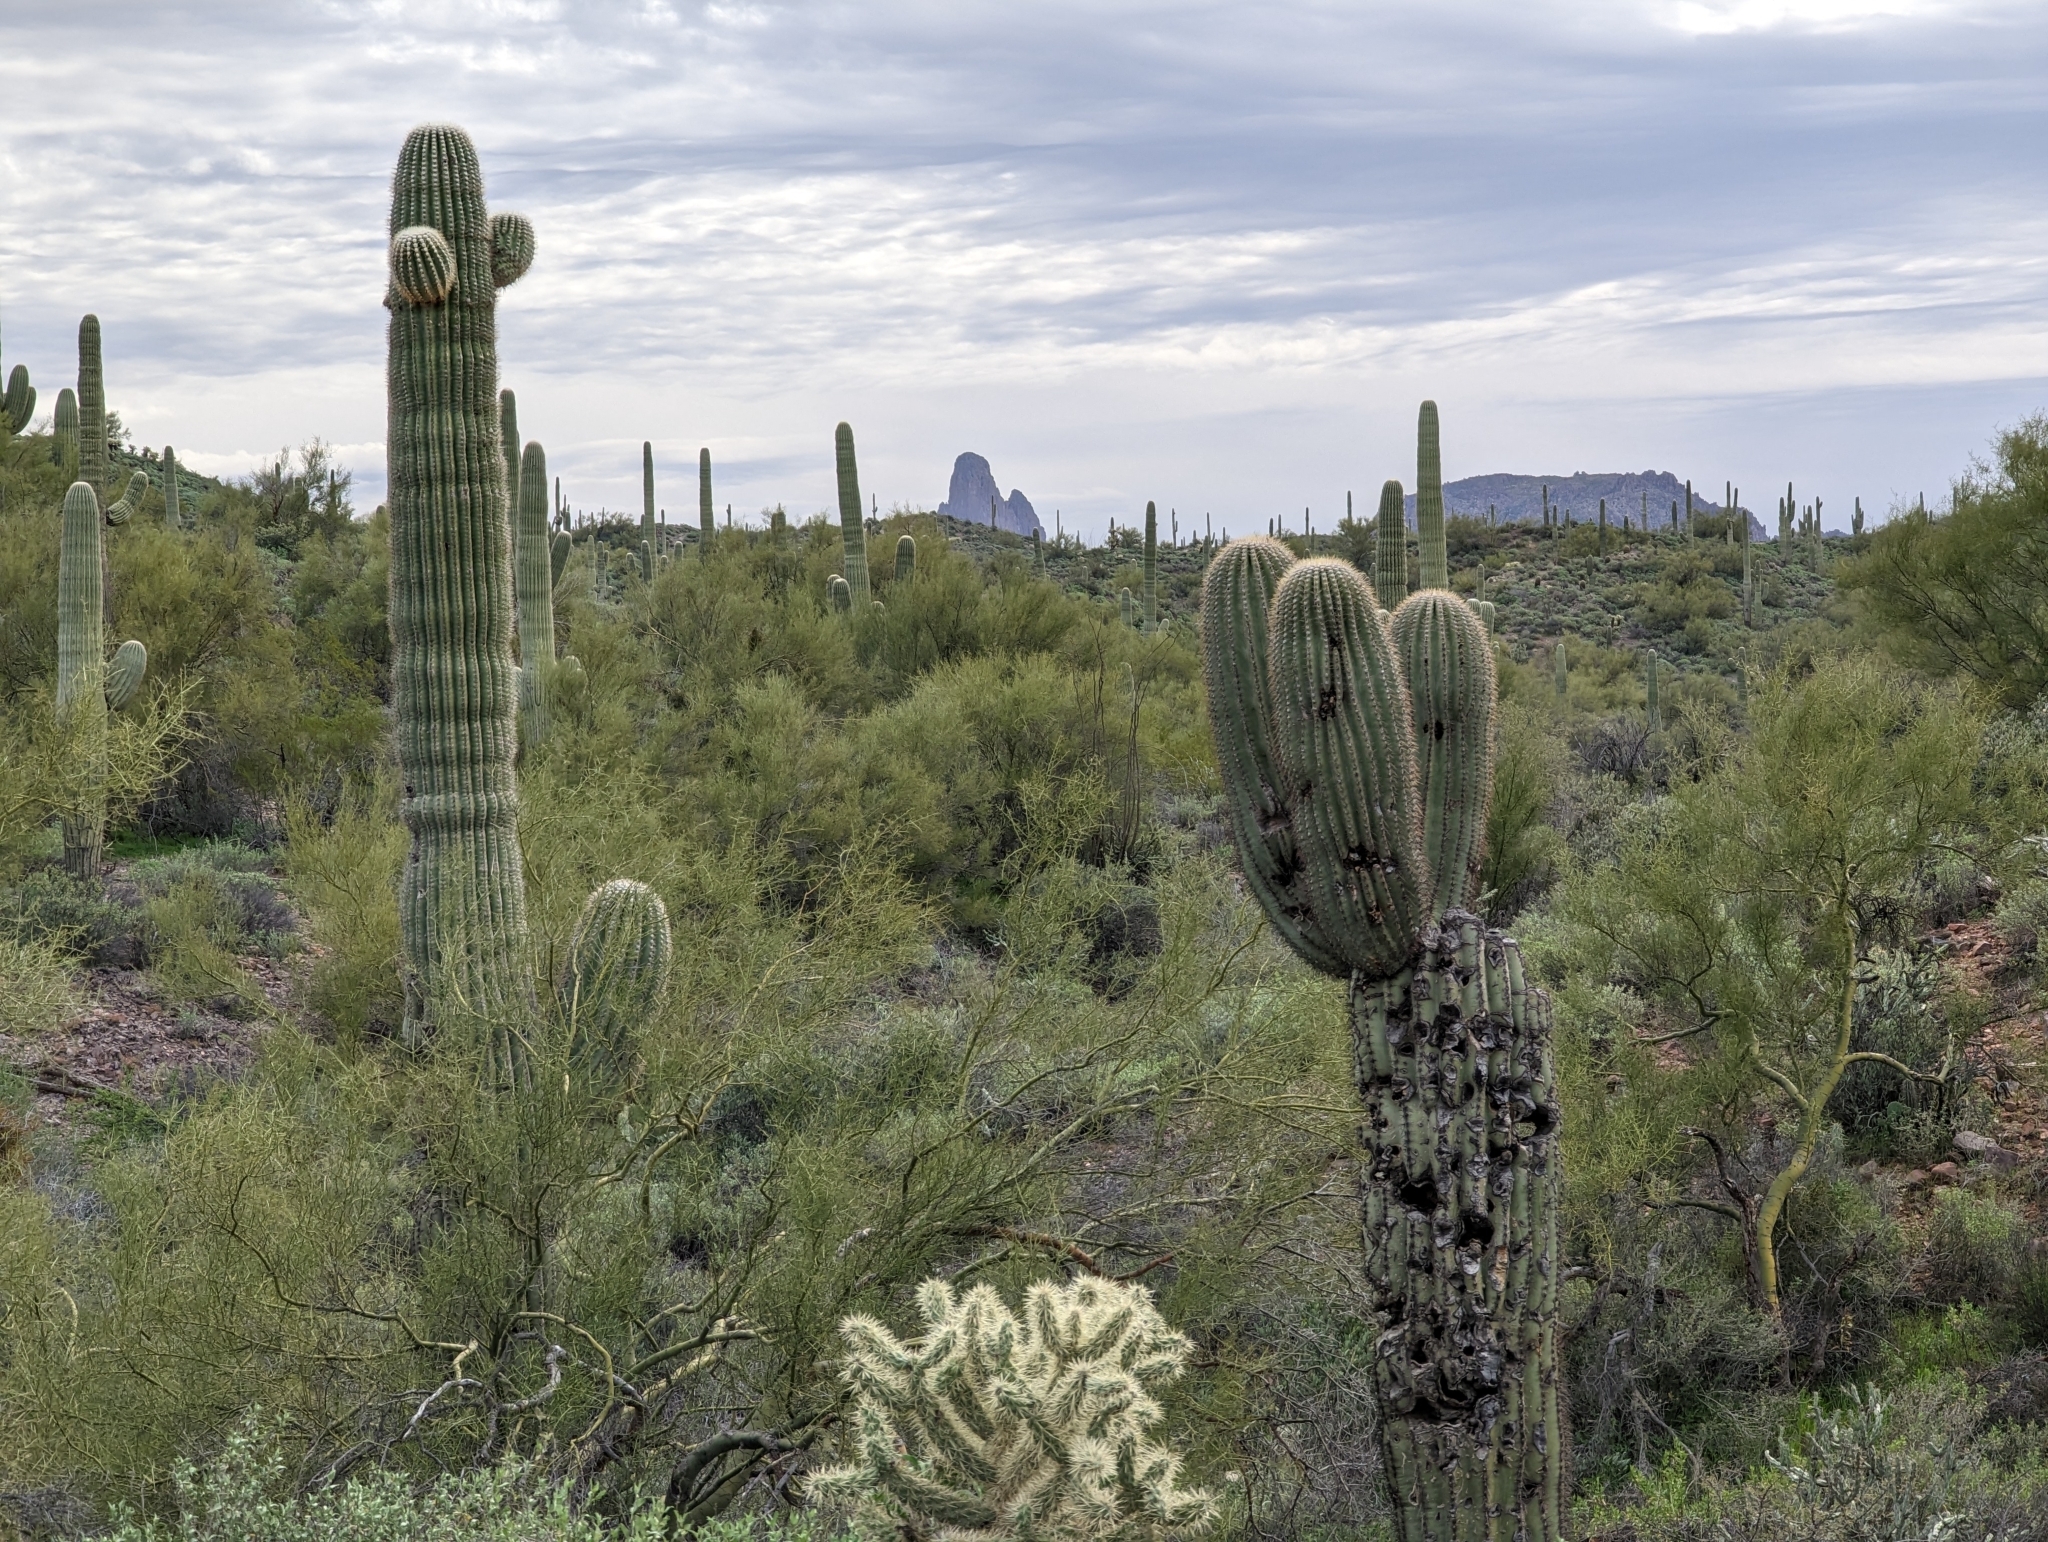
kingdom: Plantae
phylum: Tracheophyta
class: Magnoliopsida
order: Caryophyllales
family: Cactaceae
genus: Carnegiea
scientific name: Carnegiea gigantea
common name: Saguaro
